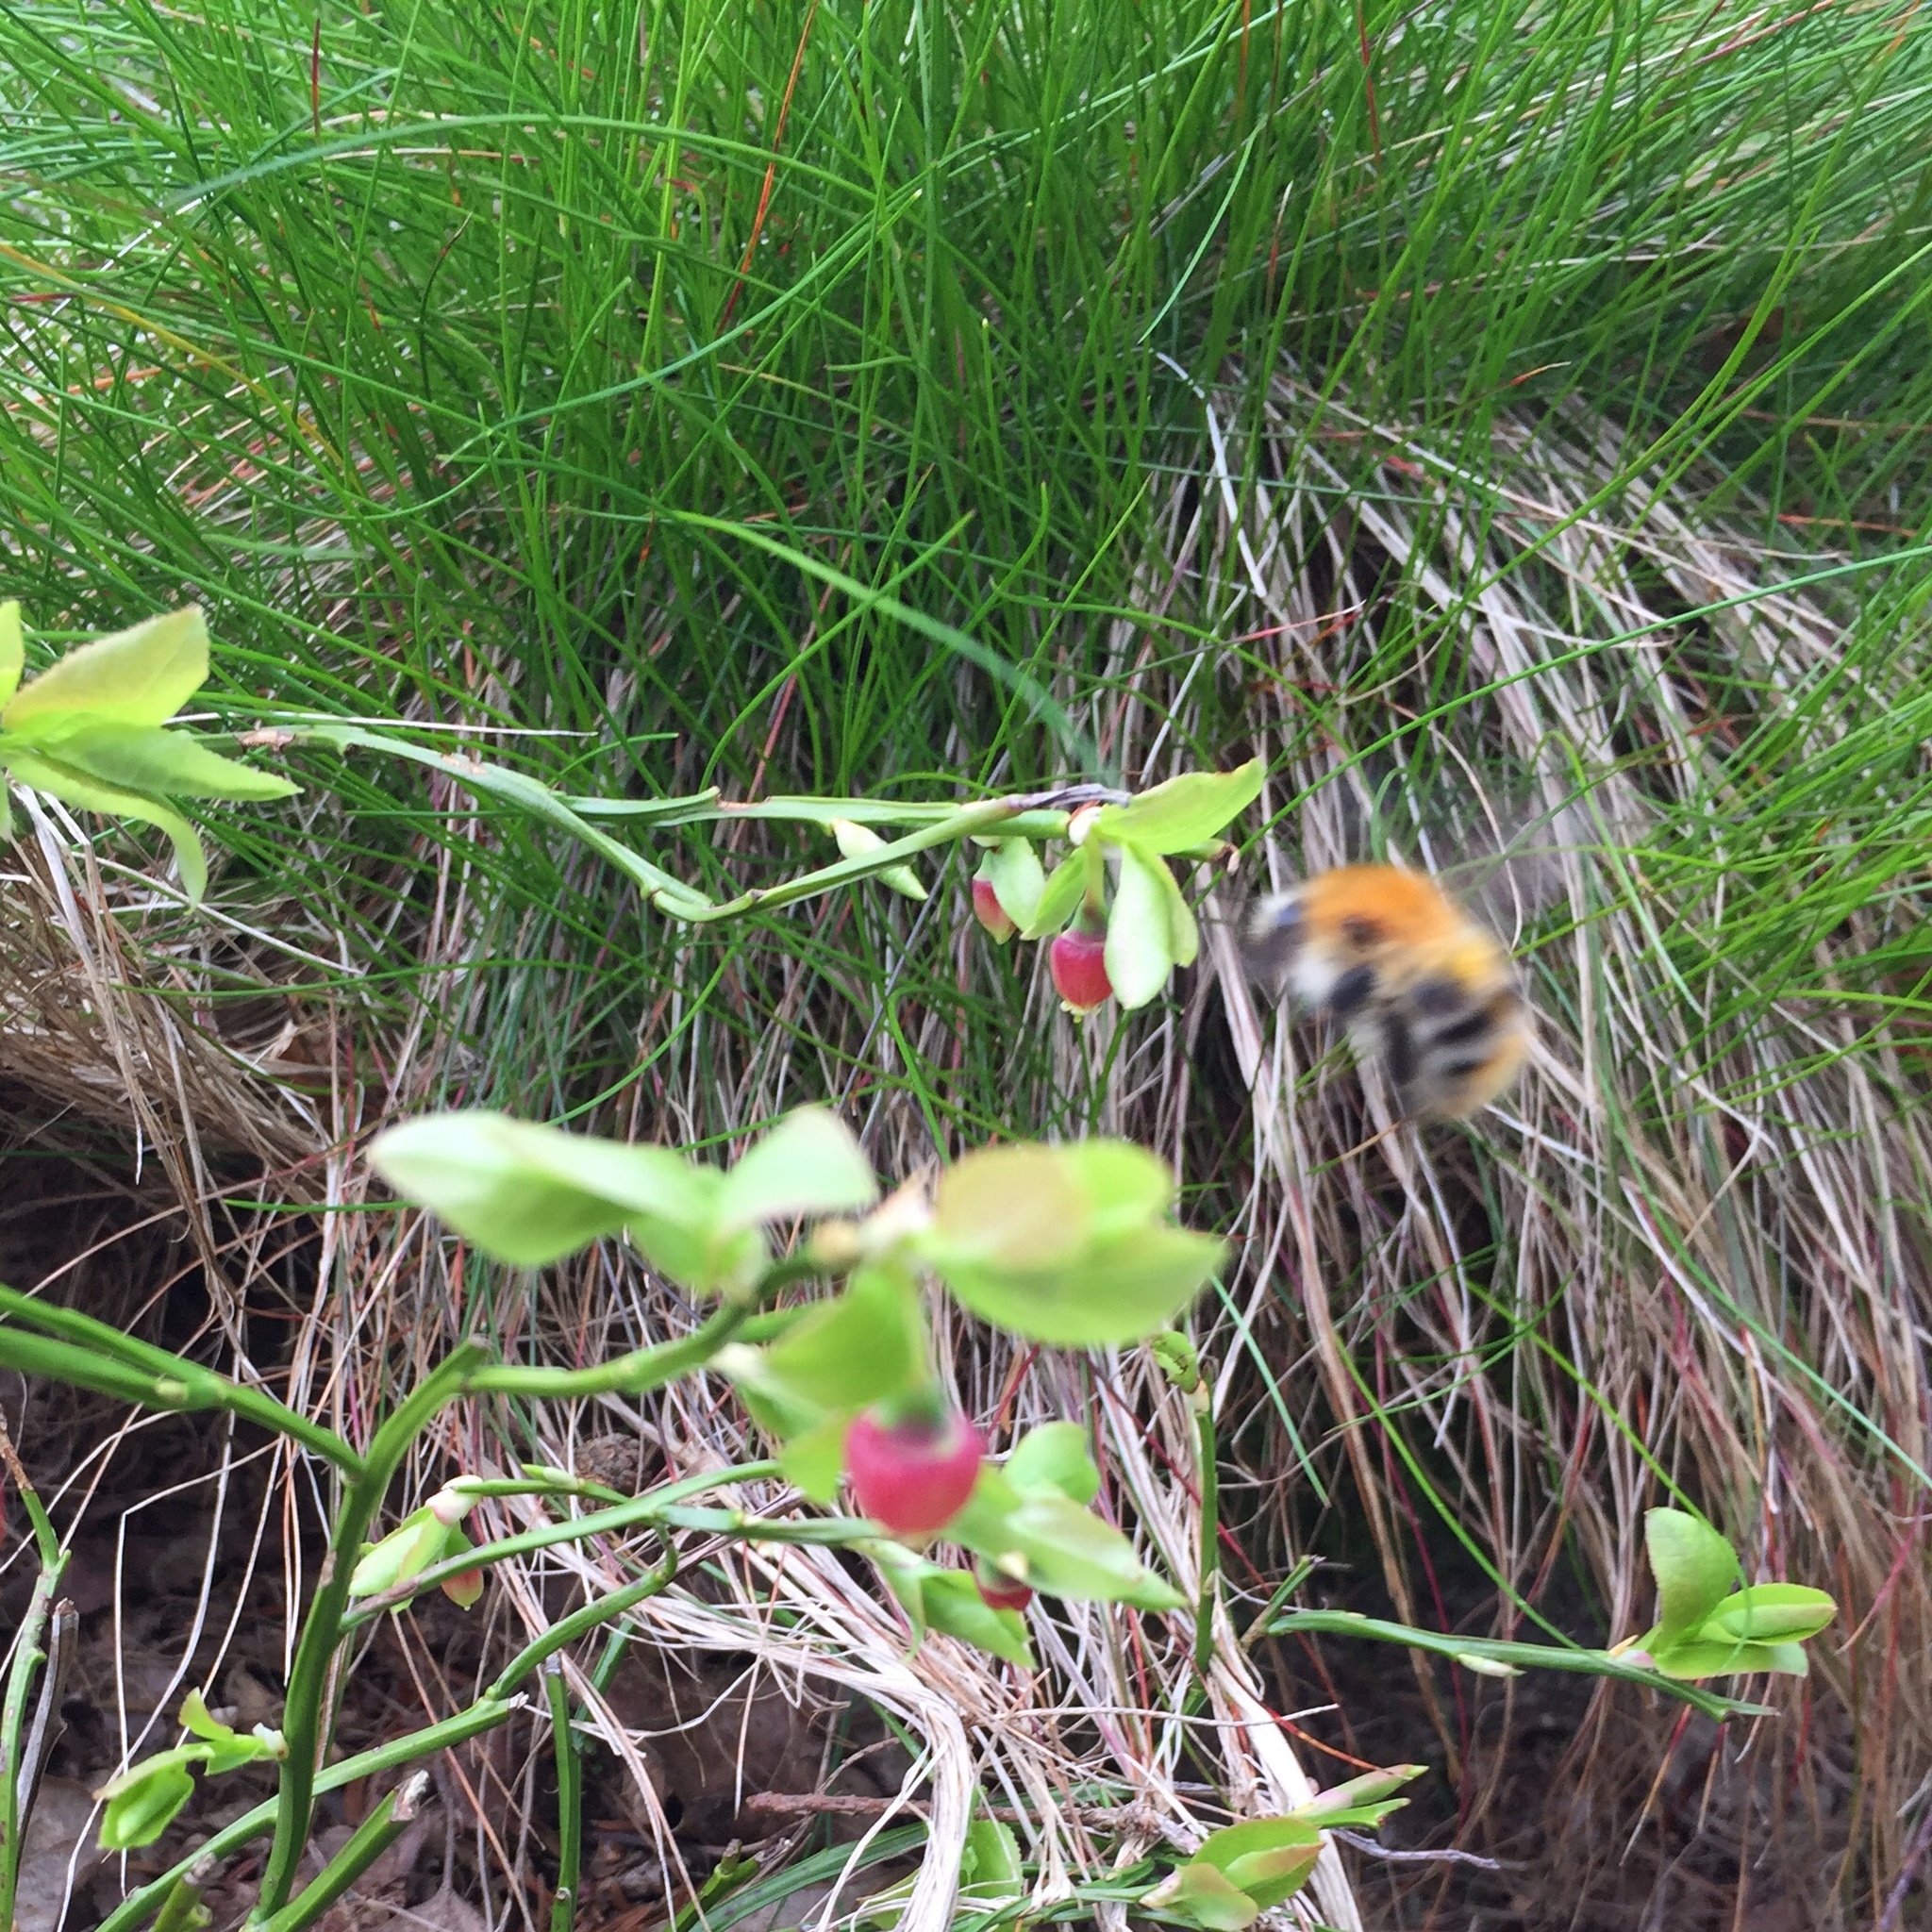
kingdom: Animalia
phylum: Arthropoda
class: Insecta
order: Hymenoptera
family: Apidae
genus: Bombus
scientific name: Bombus pascuorum
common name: Common carder bee
